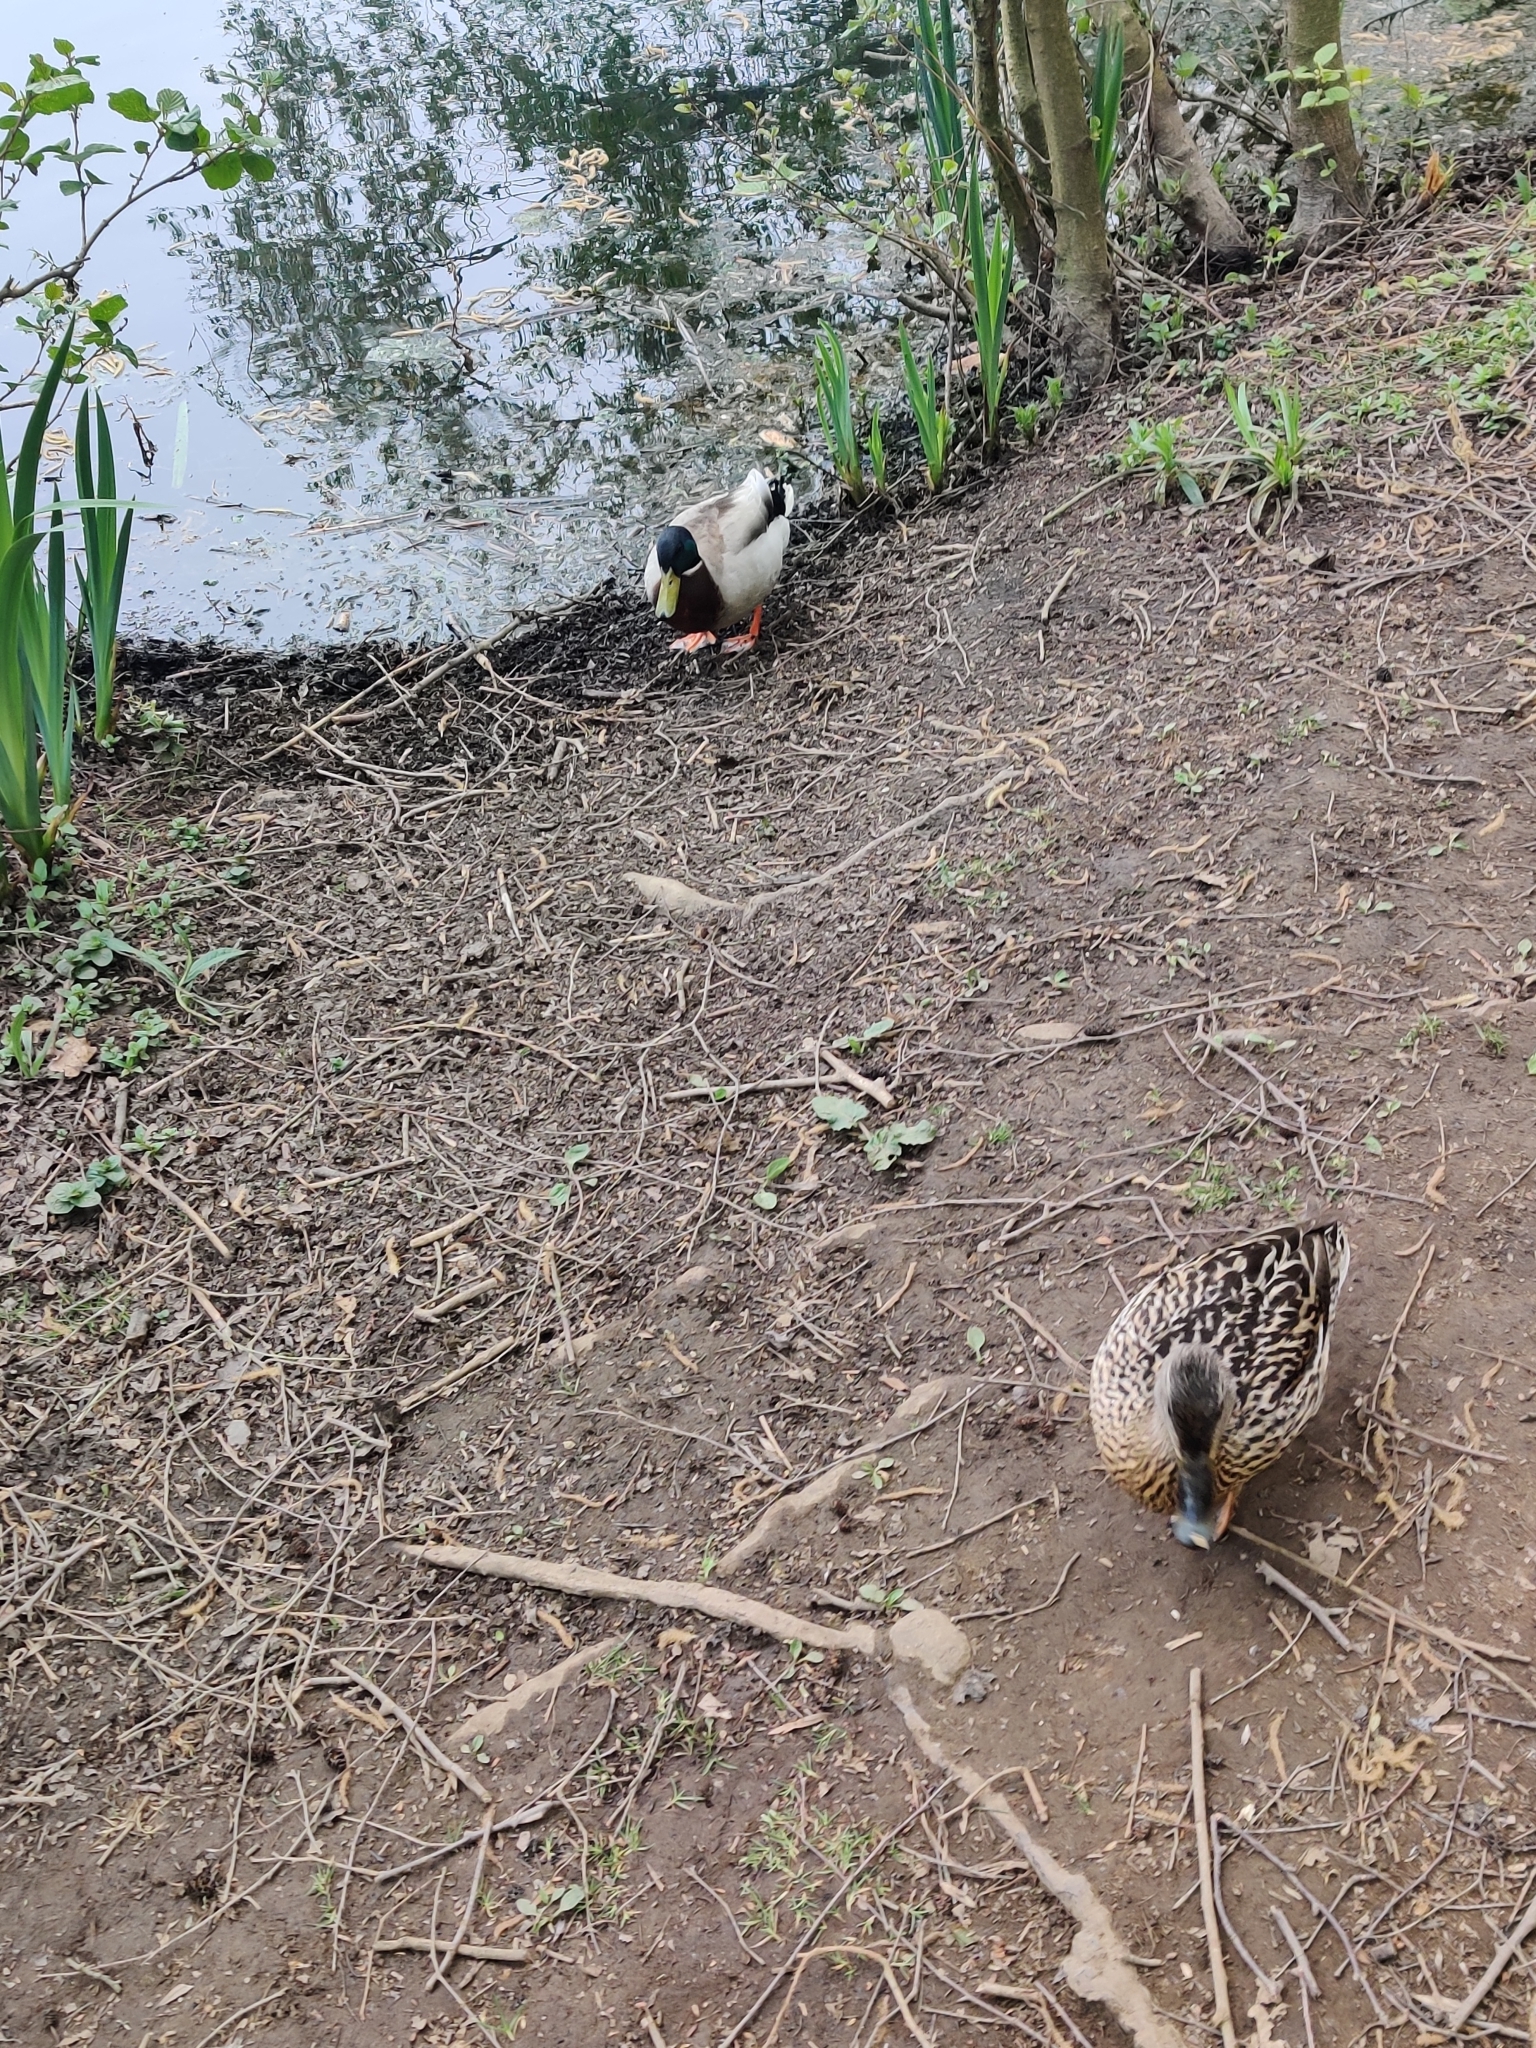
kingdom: Animalia
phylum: Chordata
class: Aves
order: Anseriformes
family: Anatidae
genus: Anas
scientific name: Anas platyrhynchos
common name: Mallard
